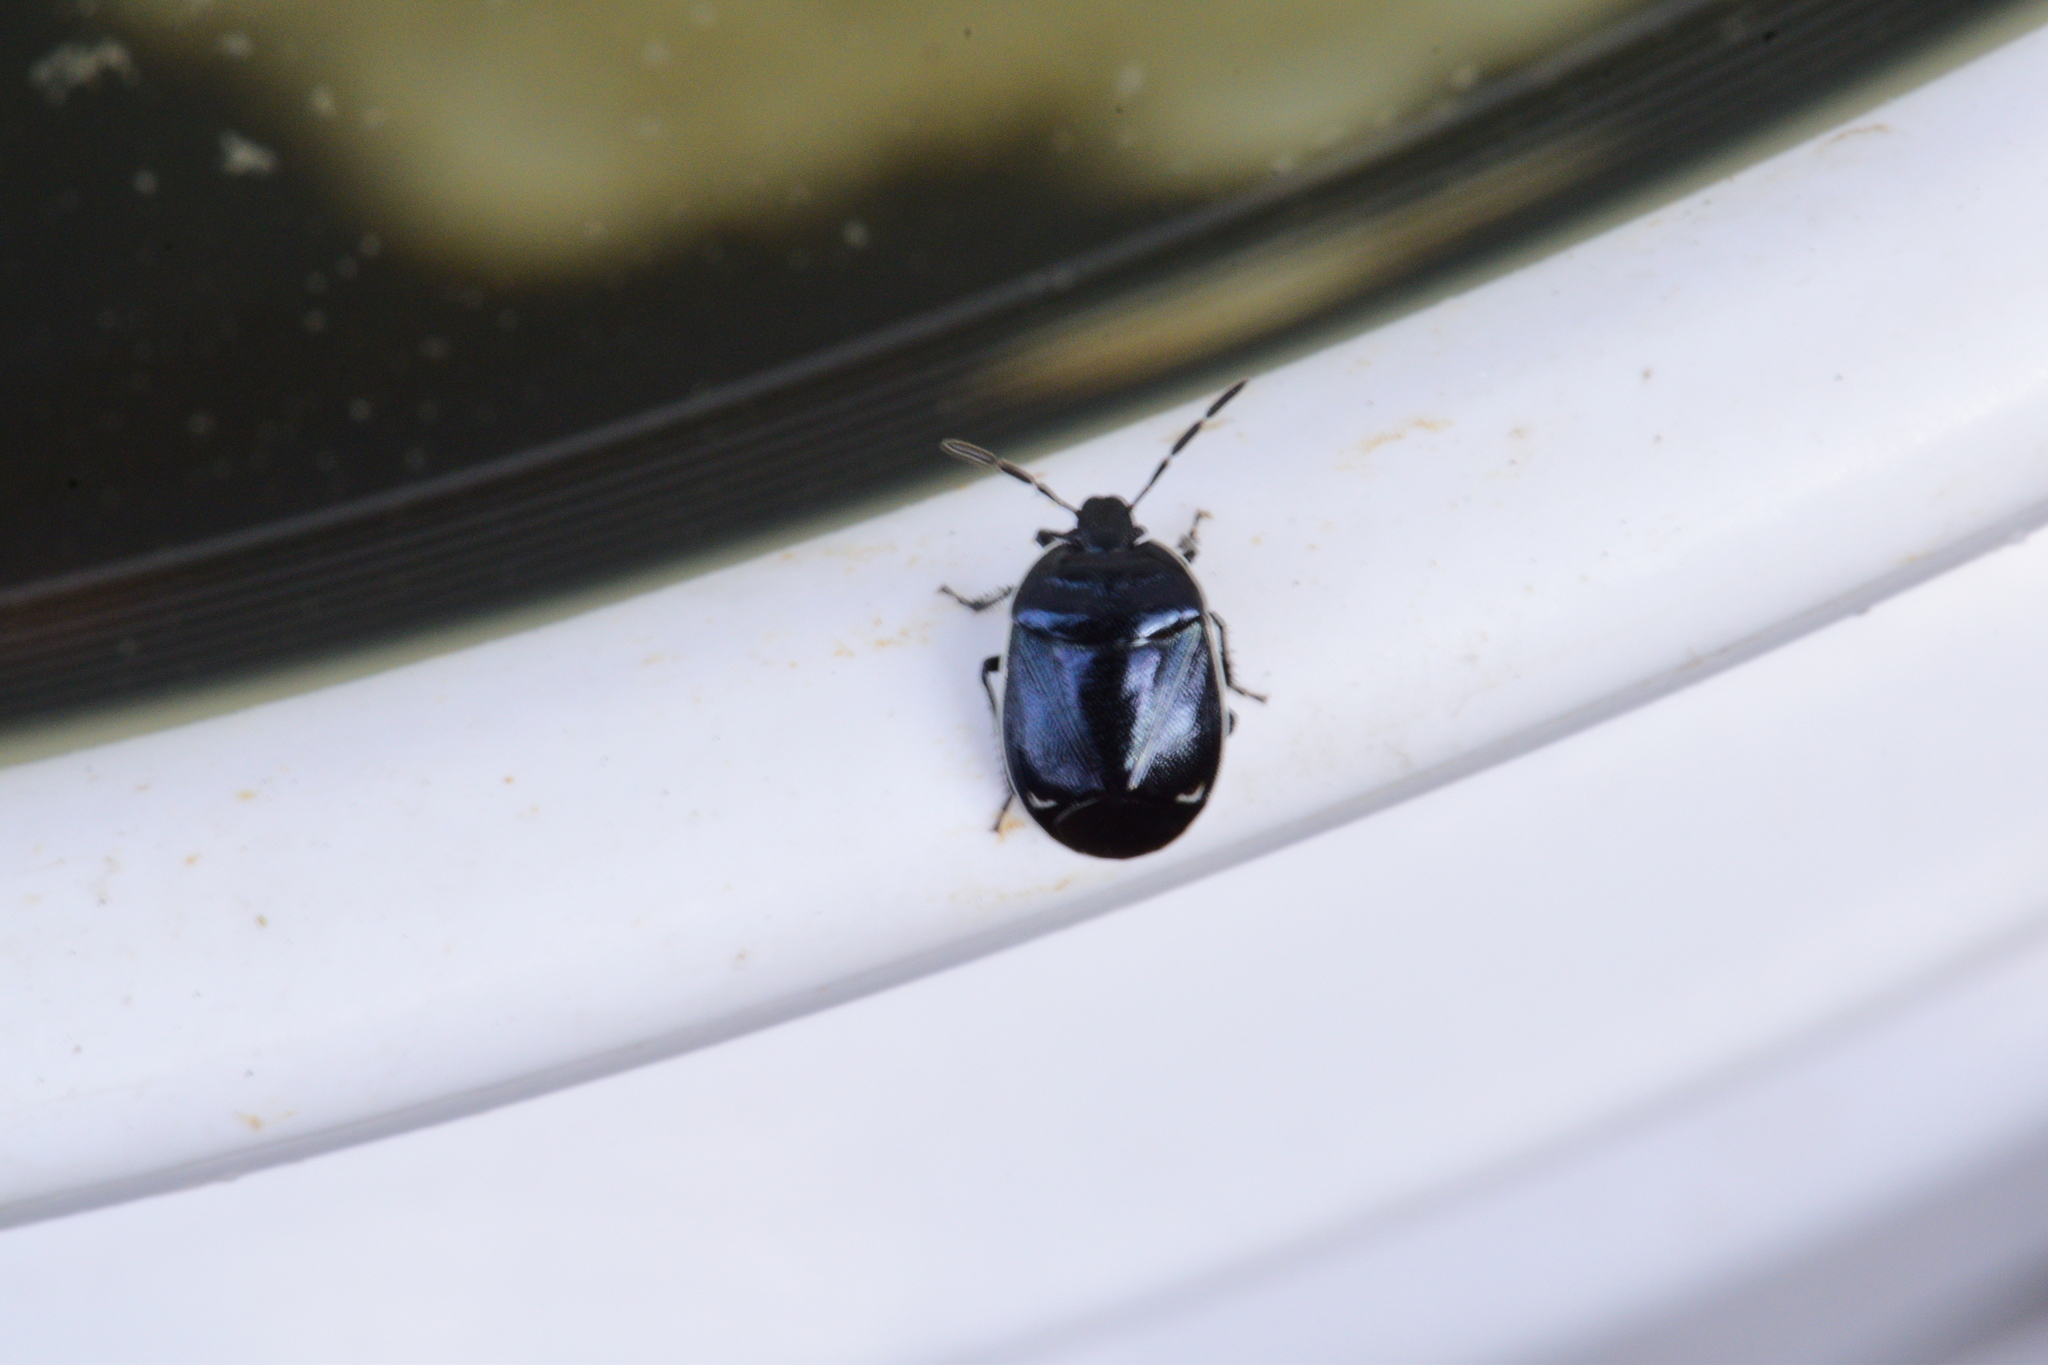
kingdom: Animalia
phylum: Arthropoda
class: Insecta
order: Hemiptera
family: Cydnidae
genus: Sehirus
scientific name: Sehirus cinctus
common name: White-margined burrower bug
